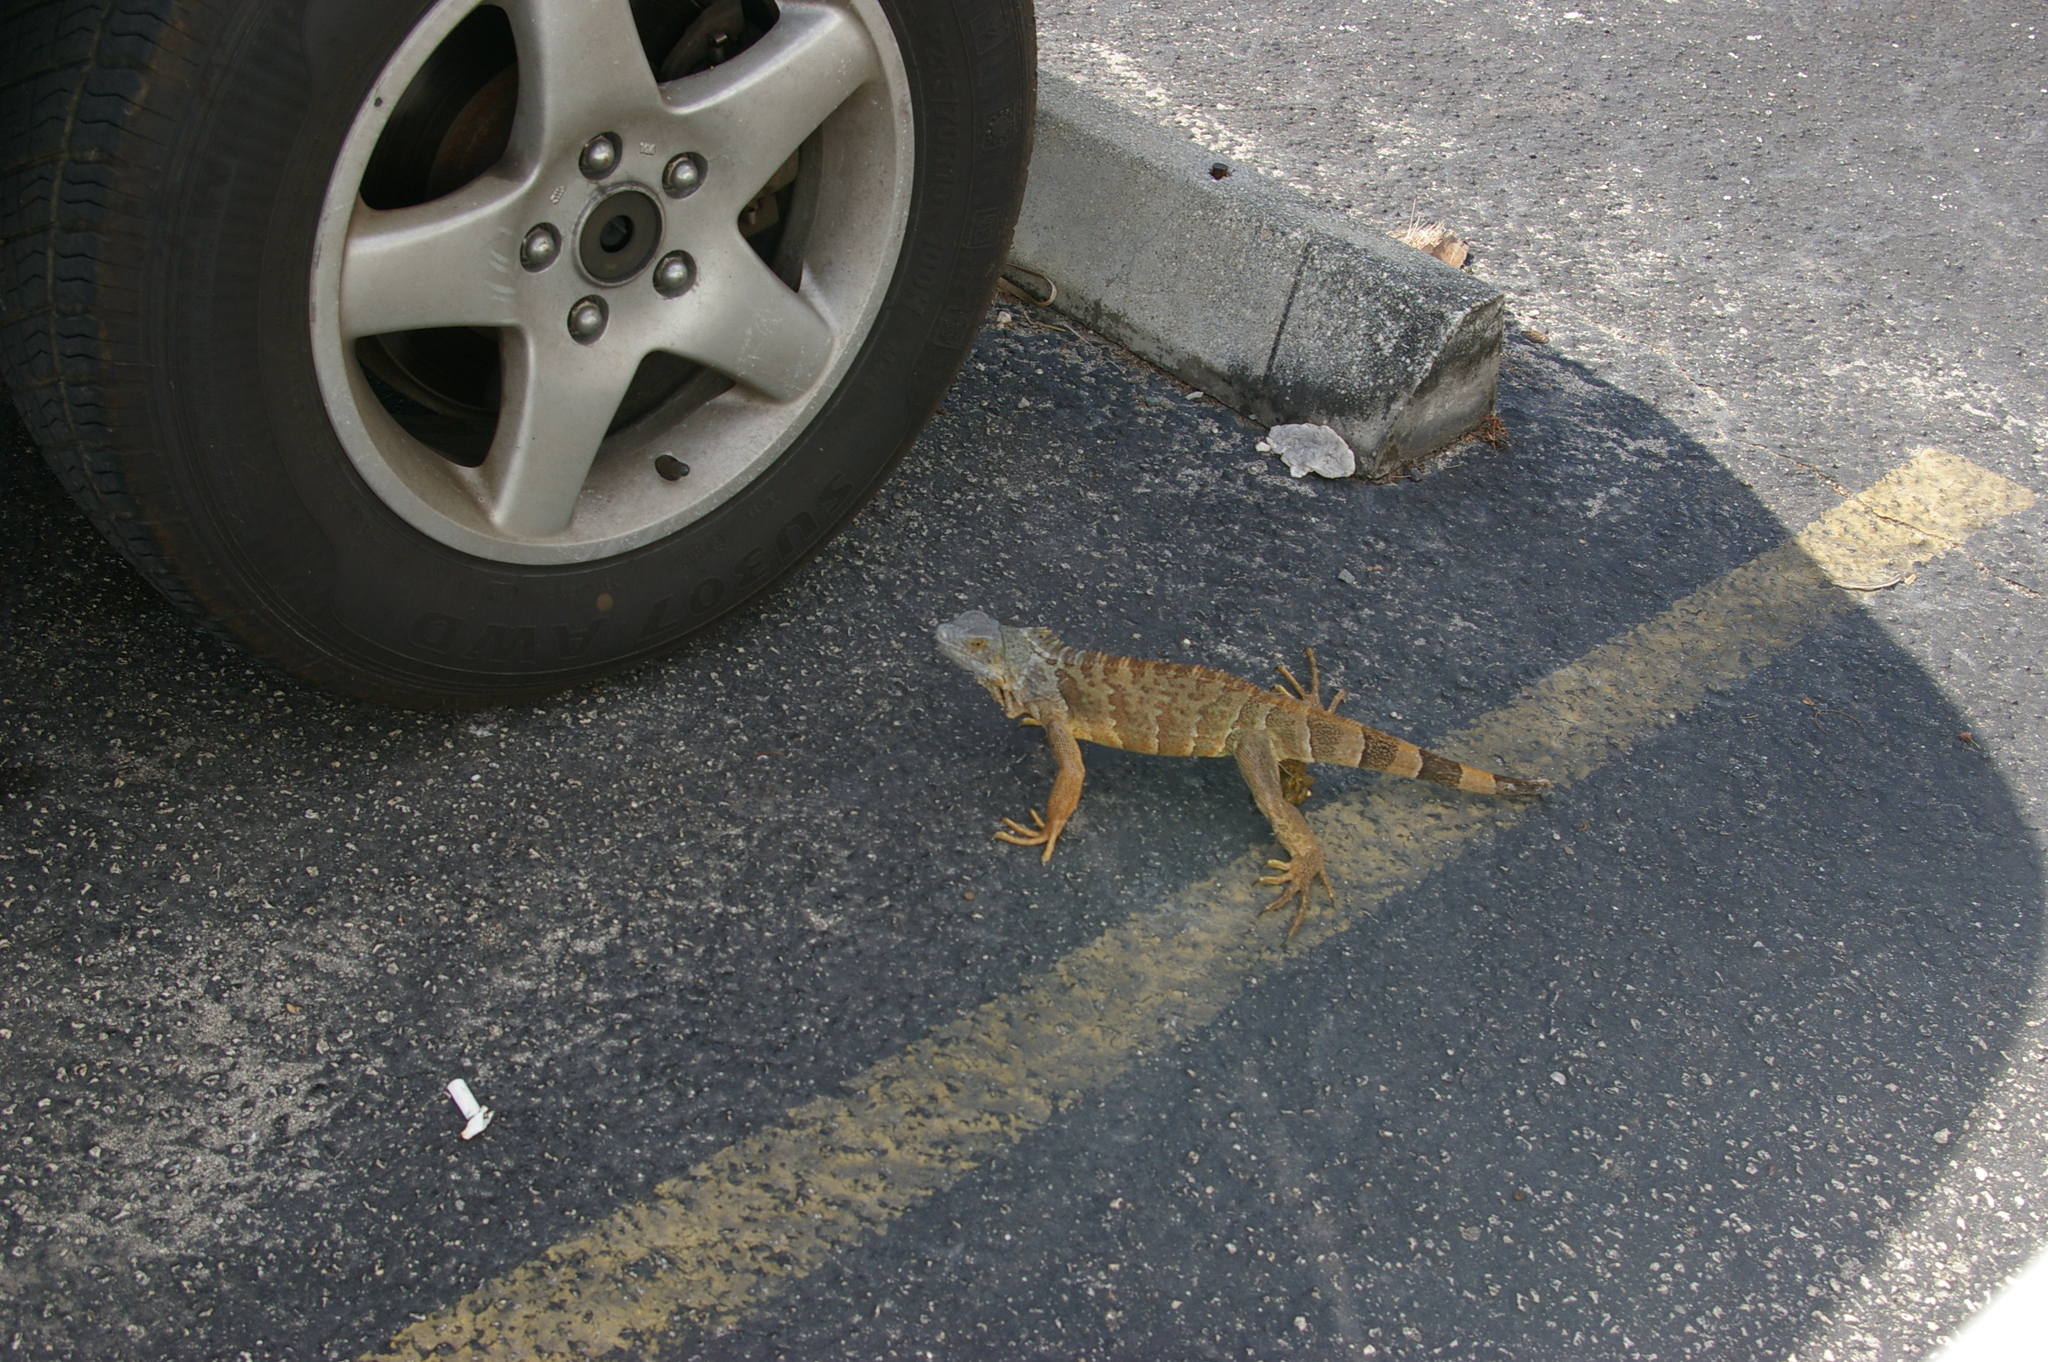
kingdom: Animalia
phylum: Chordata
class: Squamata
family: Iguanidae
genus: Iguana
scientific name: Iguana iguana
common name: Green iguana
